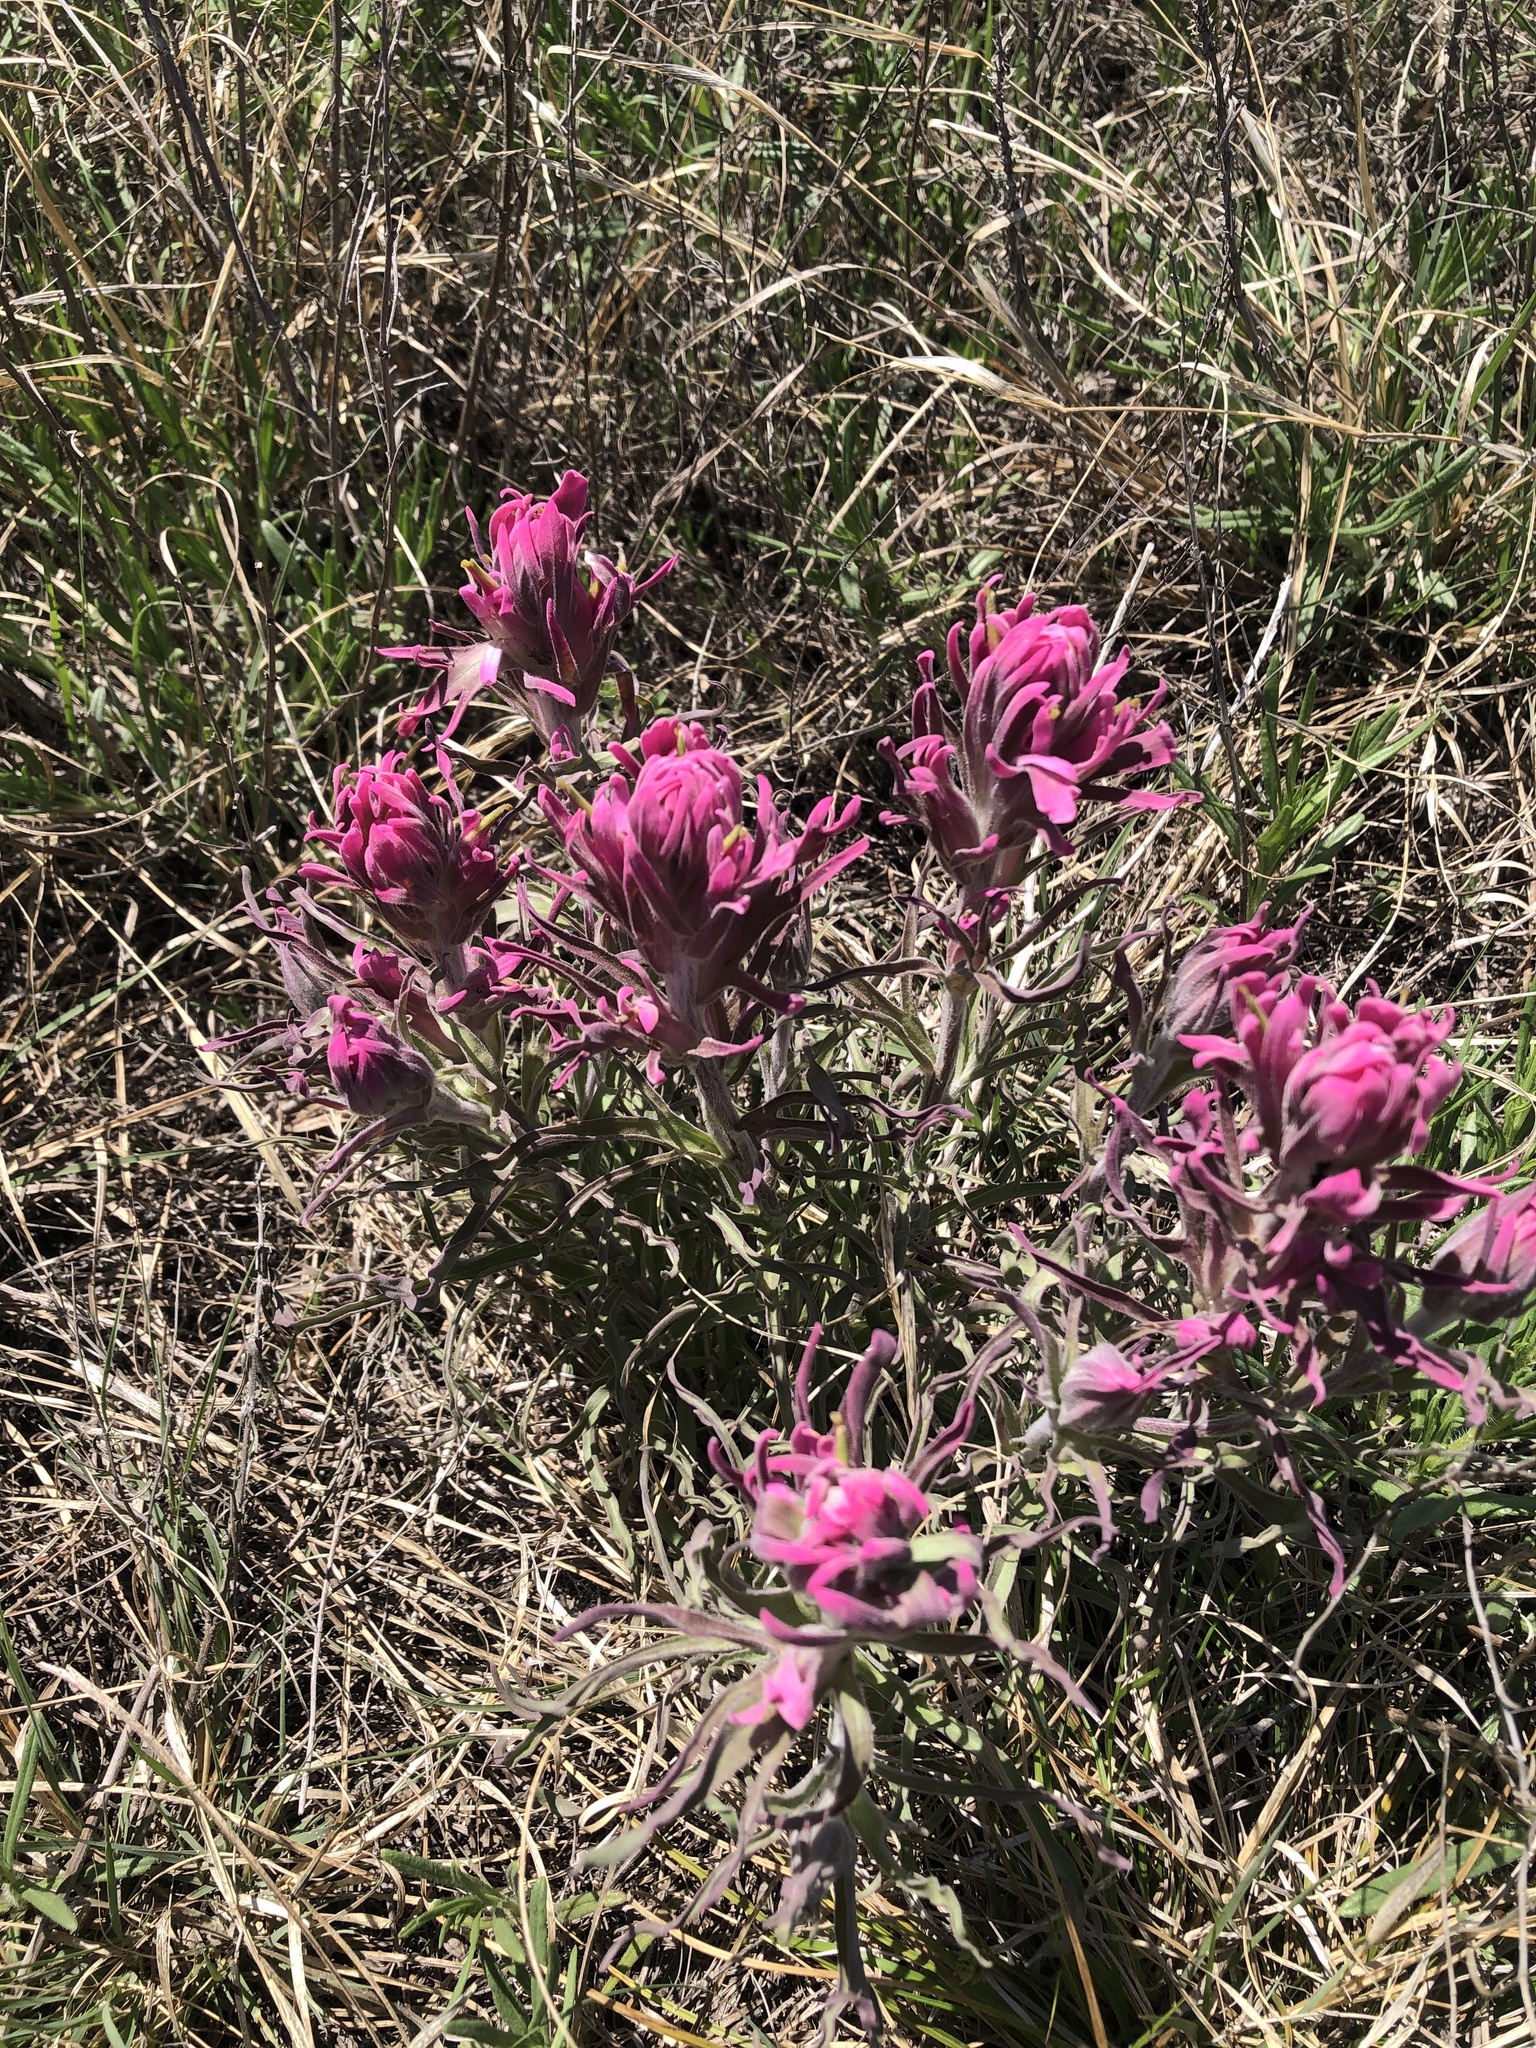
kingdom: Plantae
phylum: Tracheophyta
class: Magnoliopsida
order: Lamiales
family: Orobanchaceae
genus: Castilleja
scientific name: Castilleja purpurea
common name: Plains paintbrush
